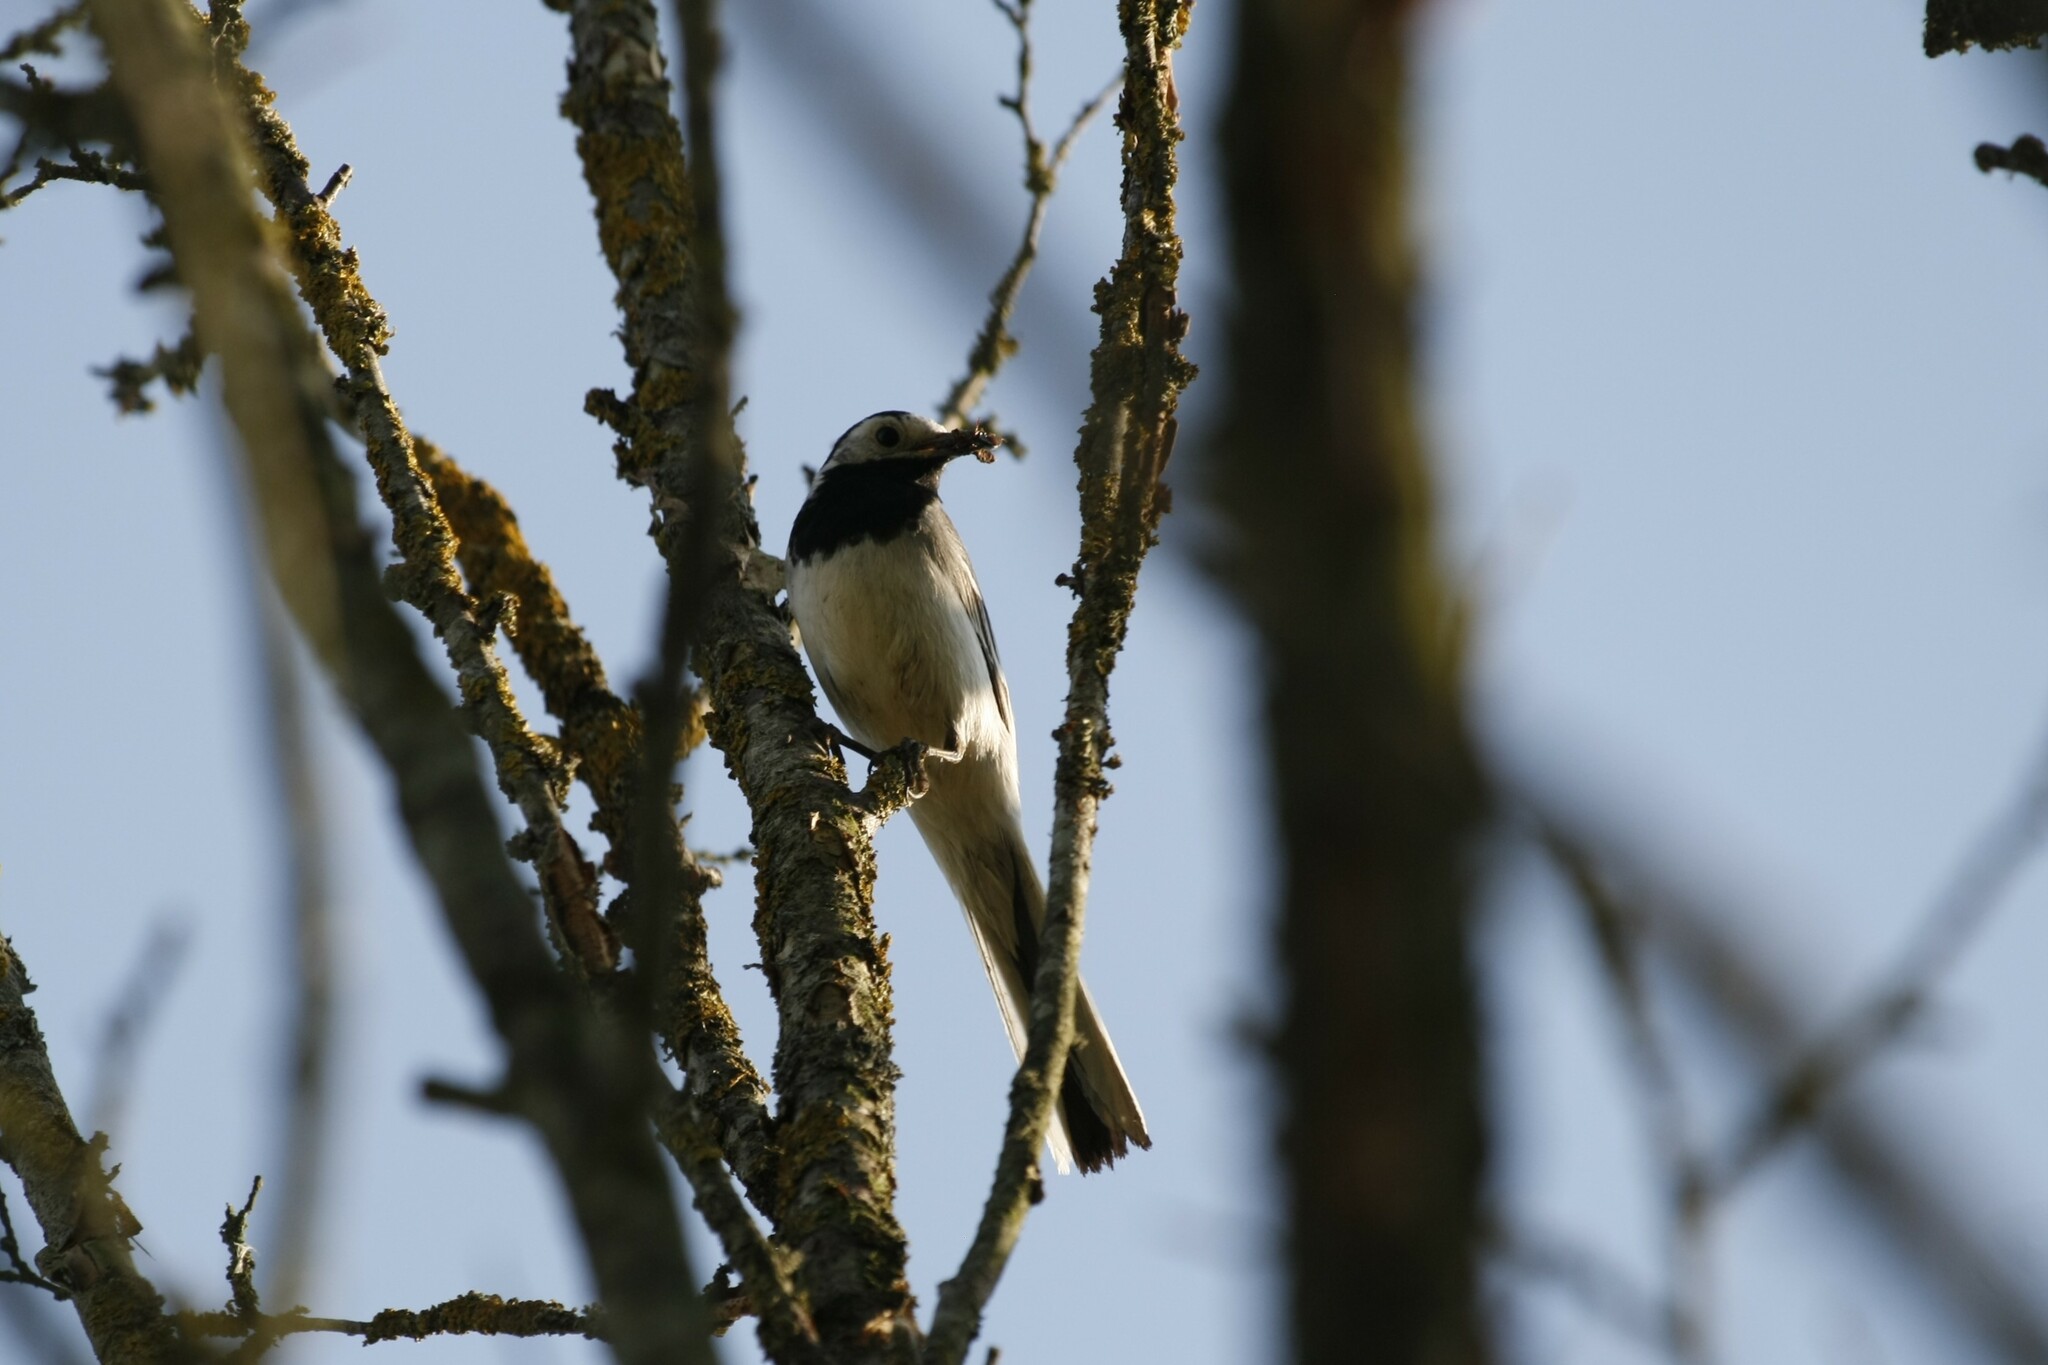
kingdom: Animalia
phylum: Chordata
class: Aves
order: Passeriformes
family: Motacillidae
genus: Motacilla
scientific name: Motacilla alba
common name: White wagtail
